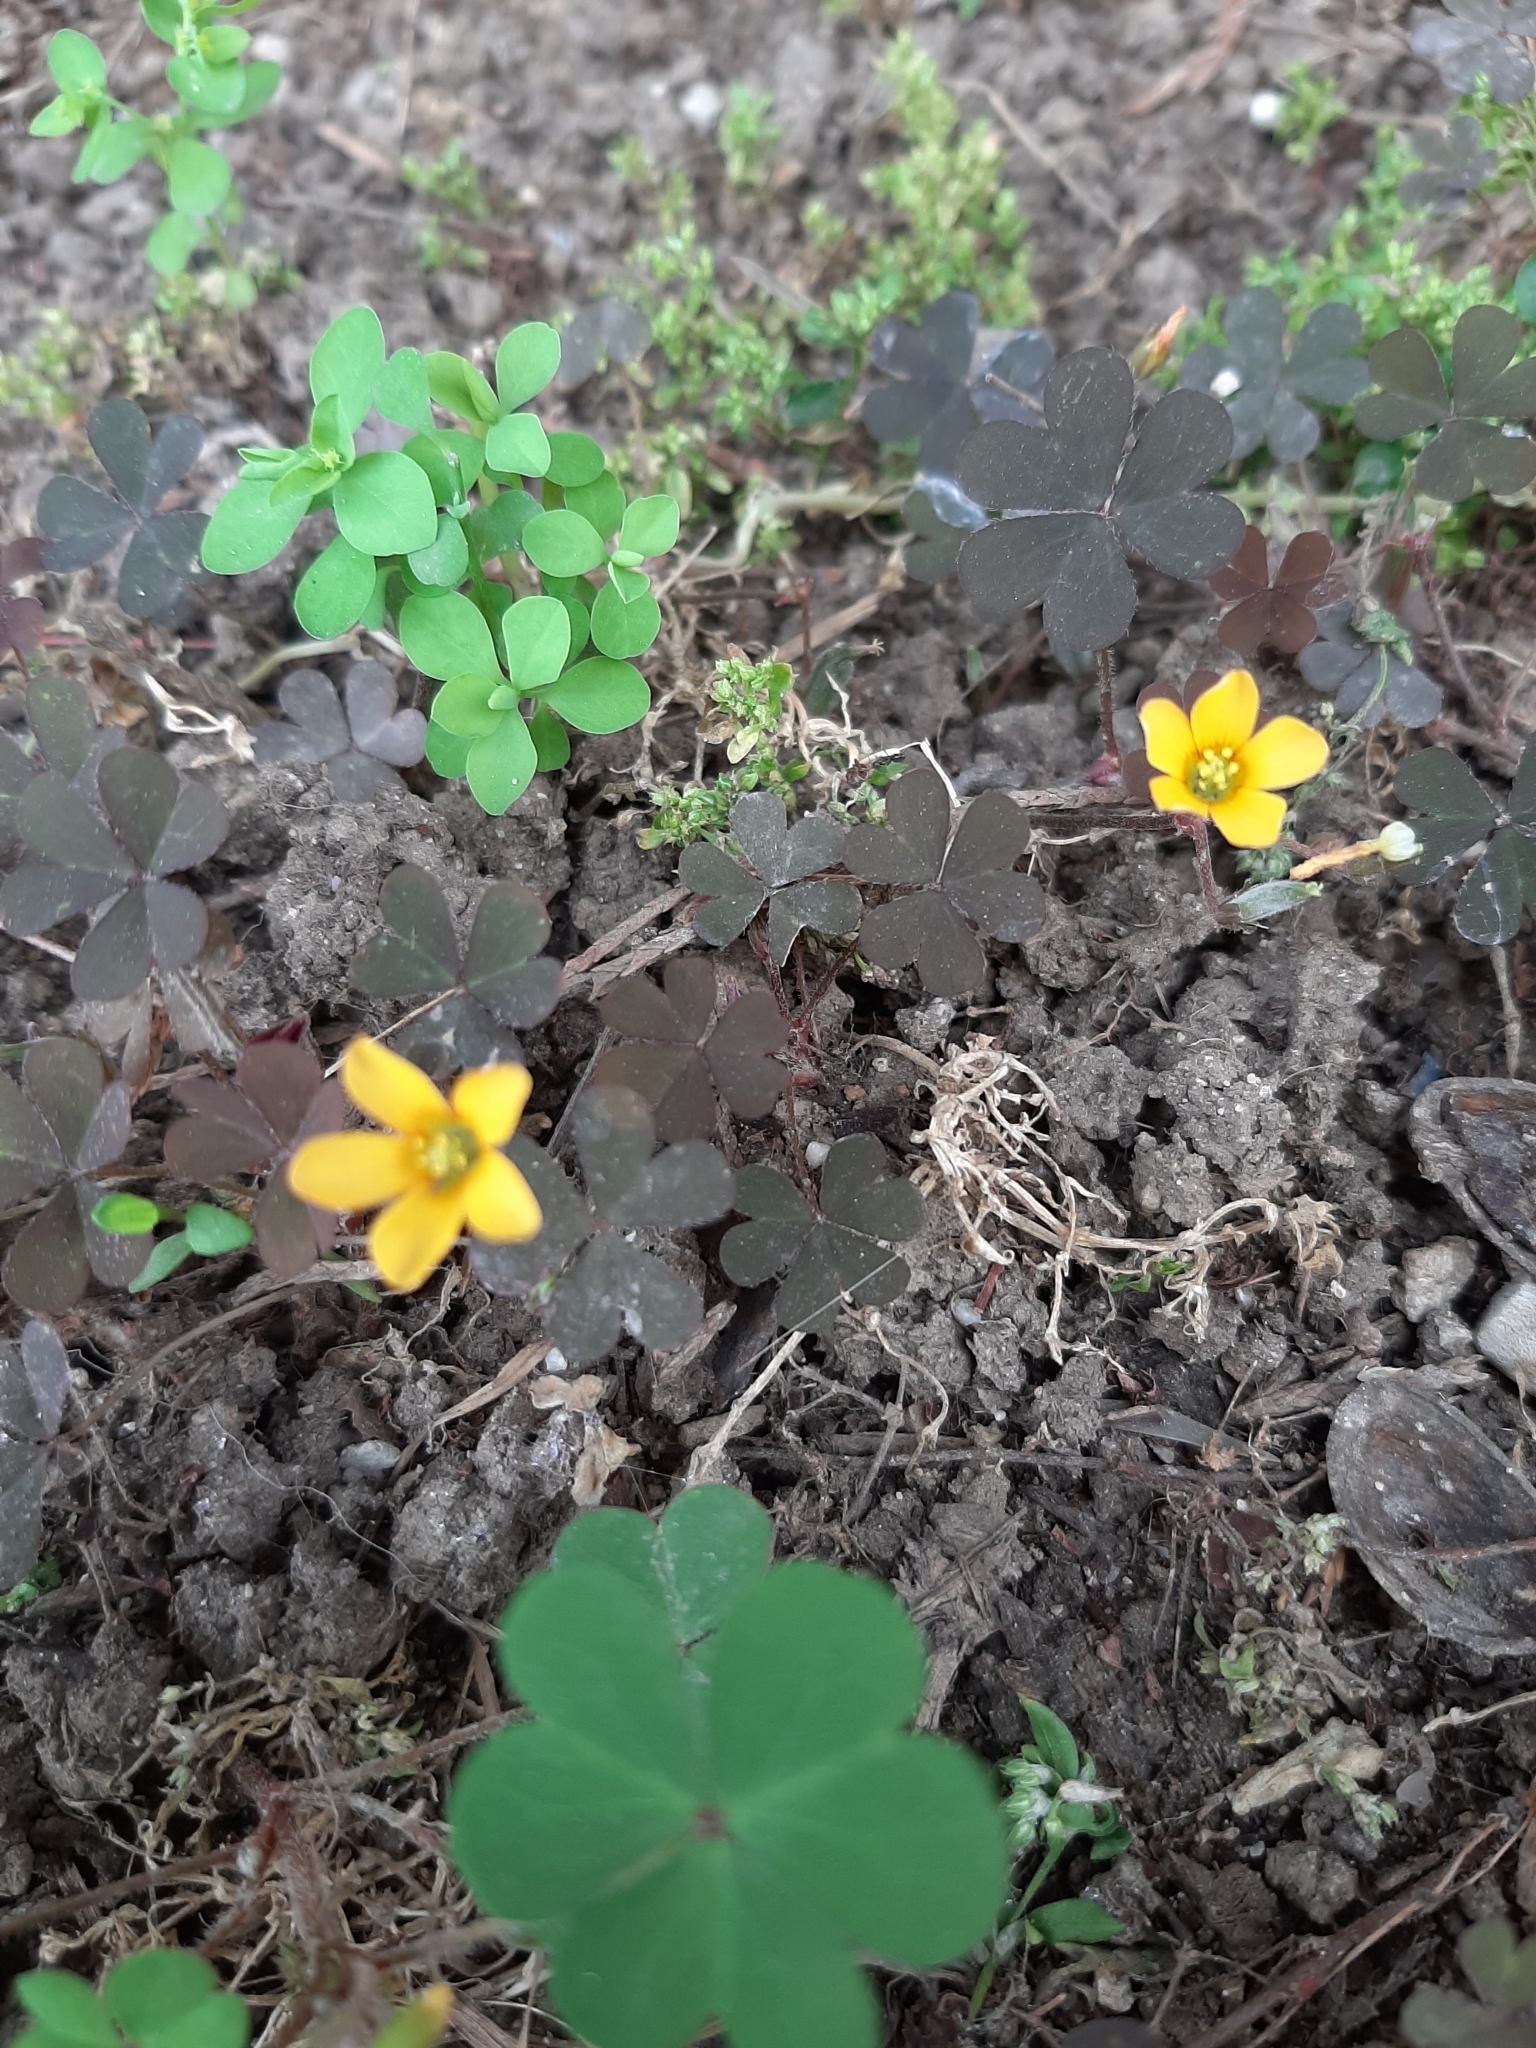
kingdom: Plantae
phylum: Tracheophyta
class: Magnoliopsida
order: Oxalidales
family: Oxalidaceae
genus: Oxalis
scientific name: Oxalis corniculata
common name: Procumbent yellow-sorrel
